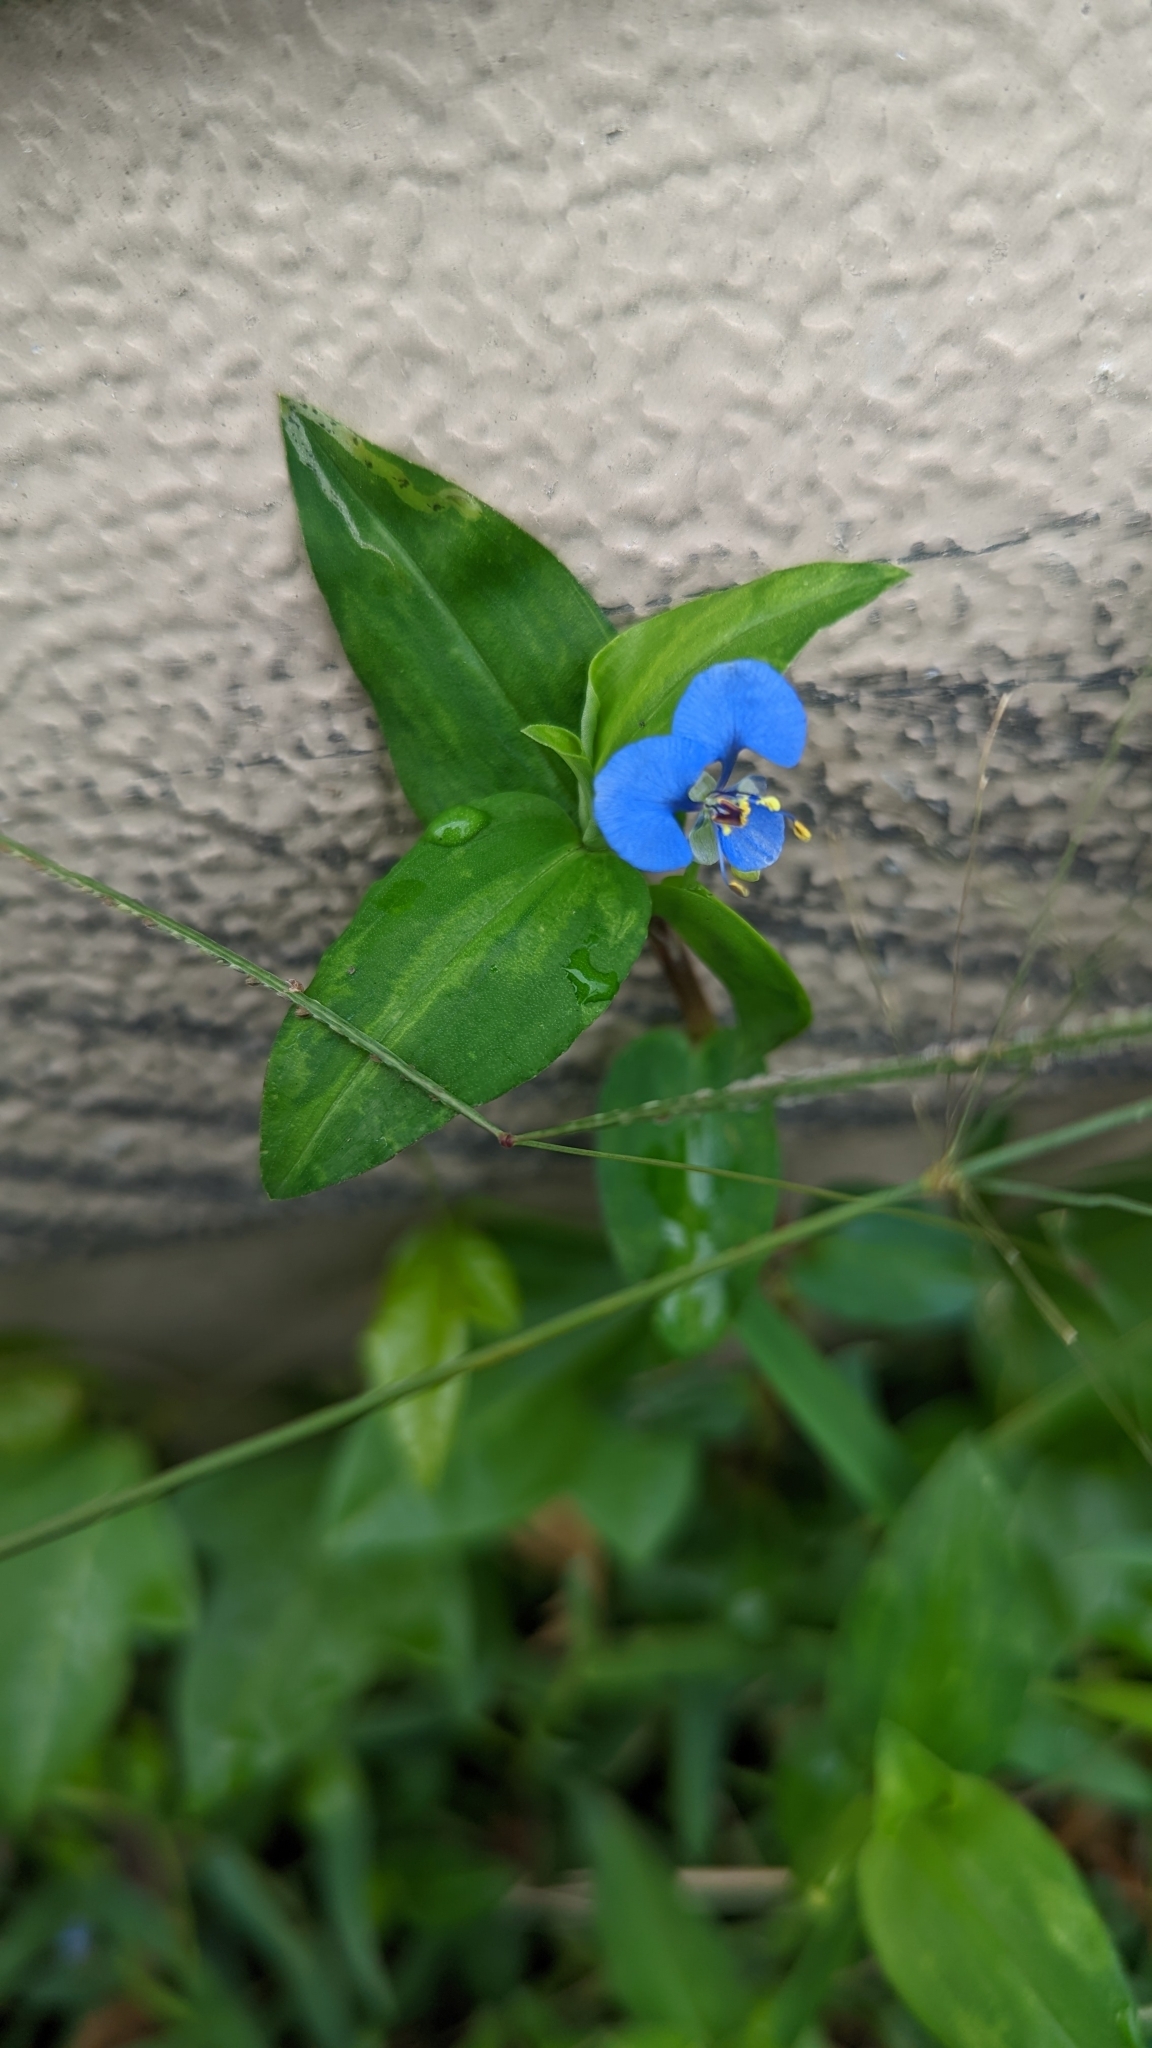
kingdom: Plantae
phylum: Tracheophyta
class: Liliopsida
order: Commelinales
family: Commelinaceae
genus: Commelina
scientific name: Commelina diffusa
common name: Climbing dayflower
